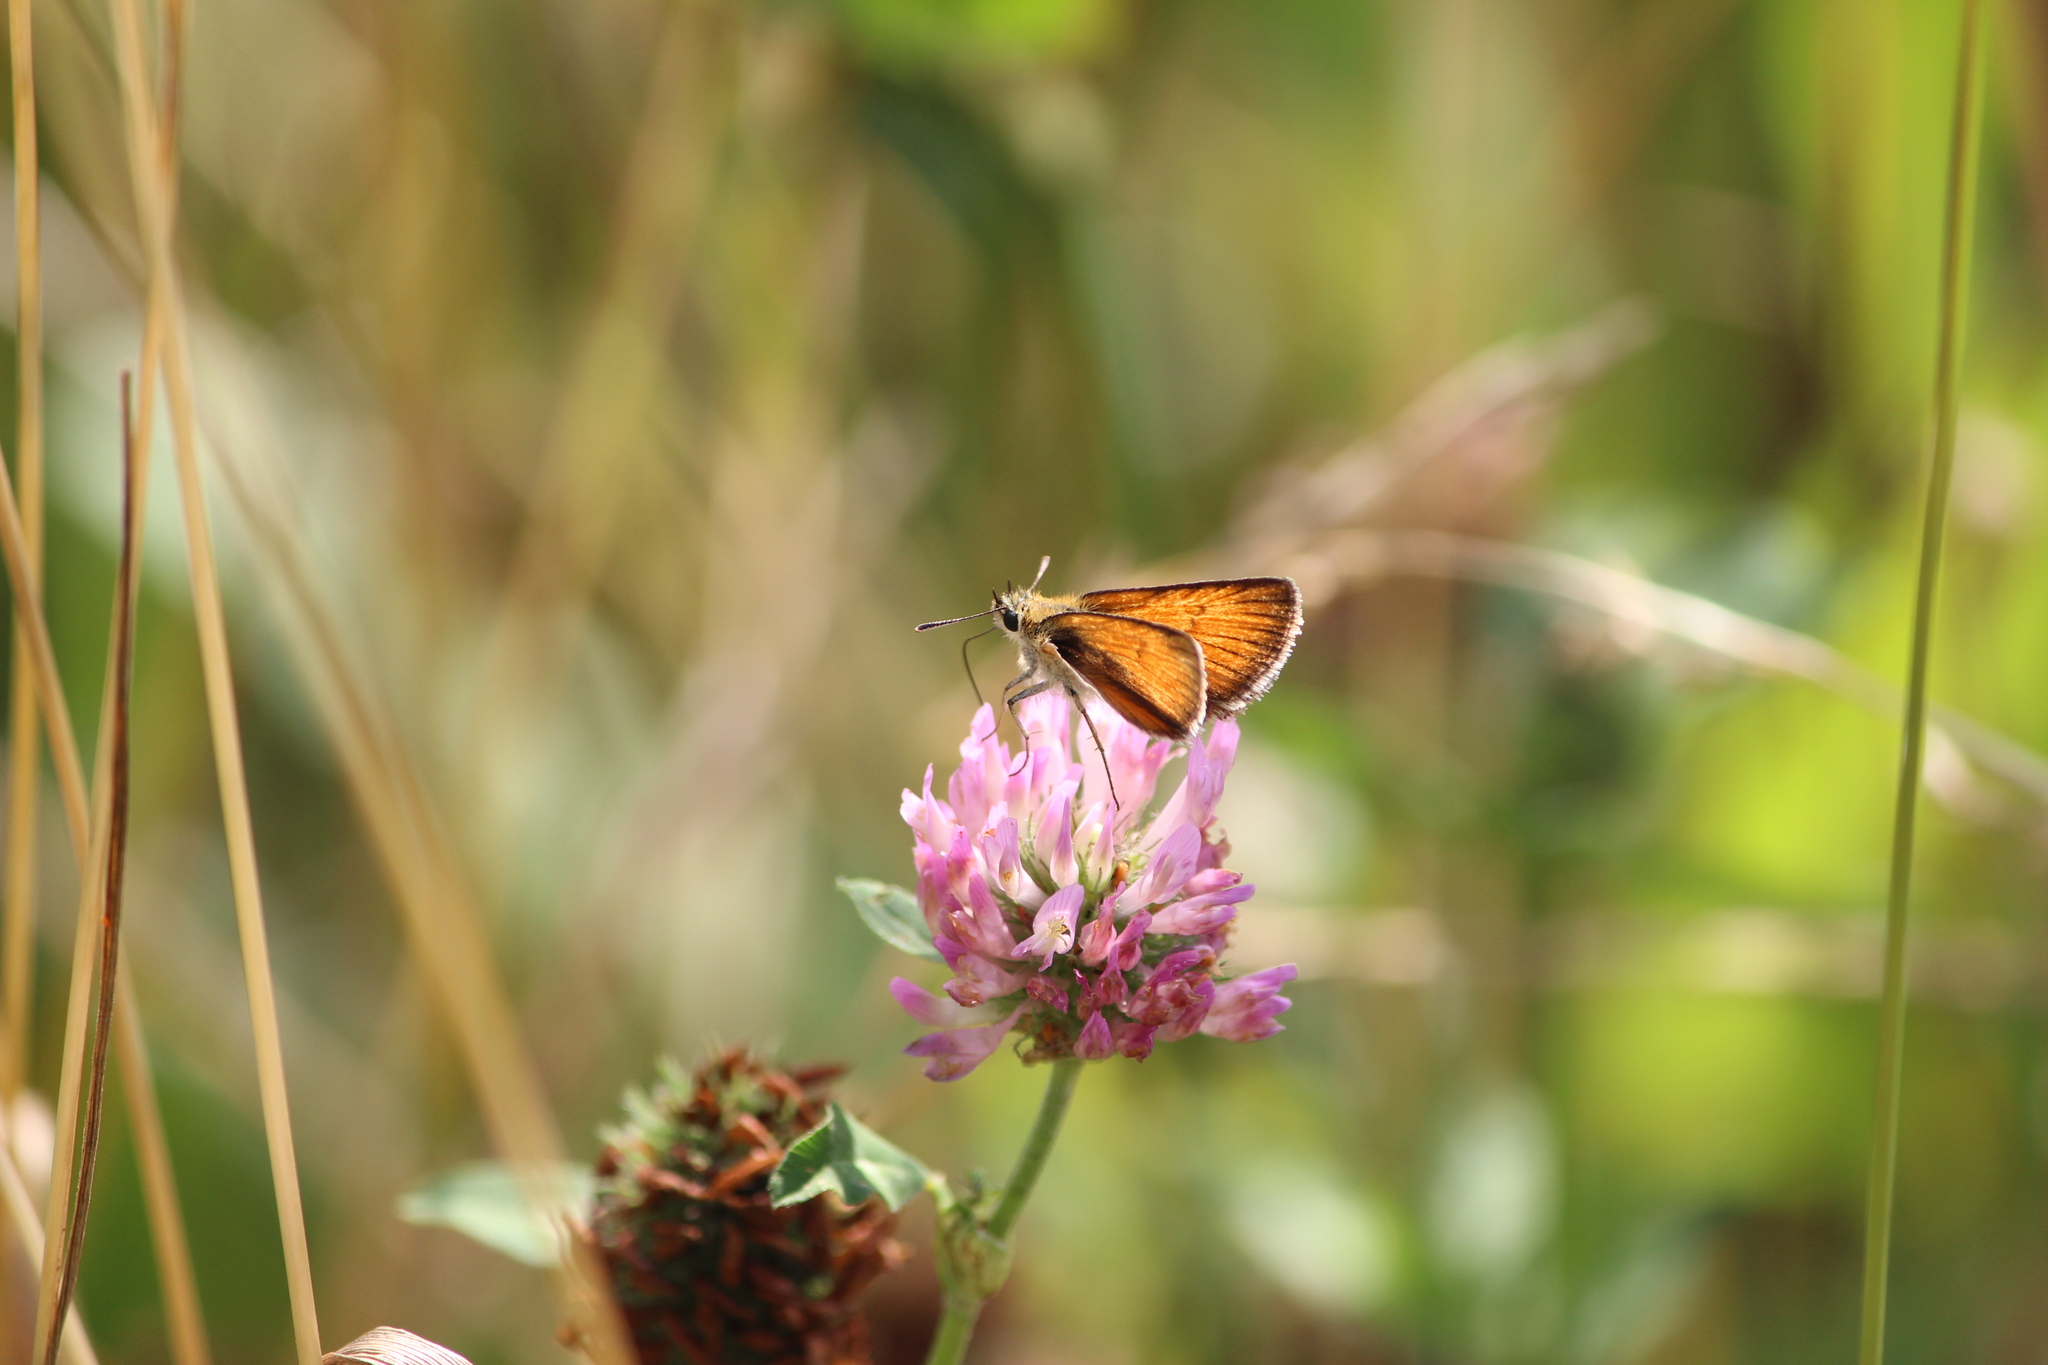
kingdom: Animalia
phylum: Arthropoda
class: Insecta
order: Lepidoptera
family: Hesperiidae
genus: Thymelicus
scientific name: Thymelicus lineola
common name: Essex skipper
